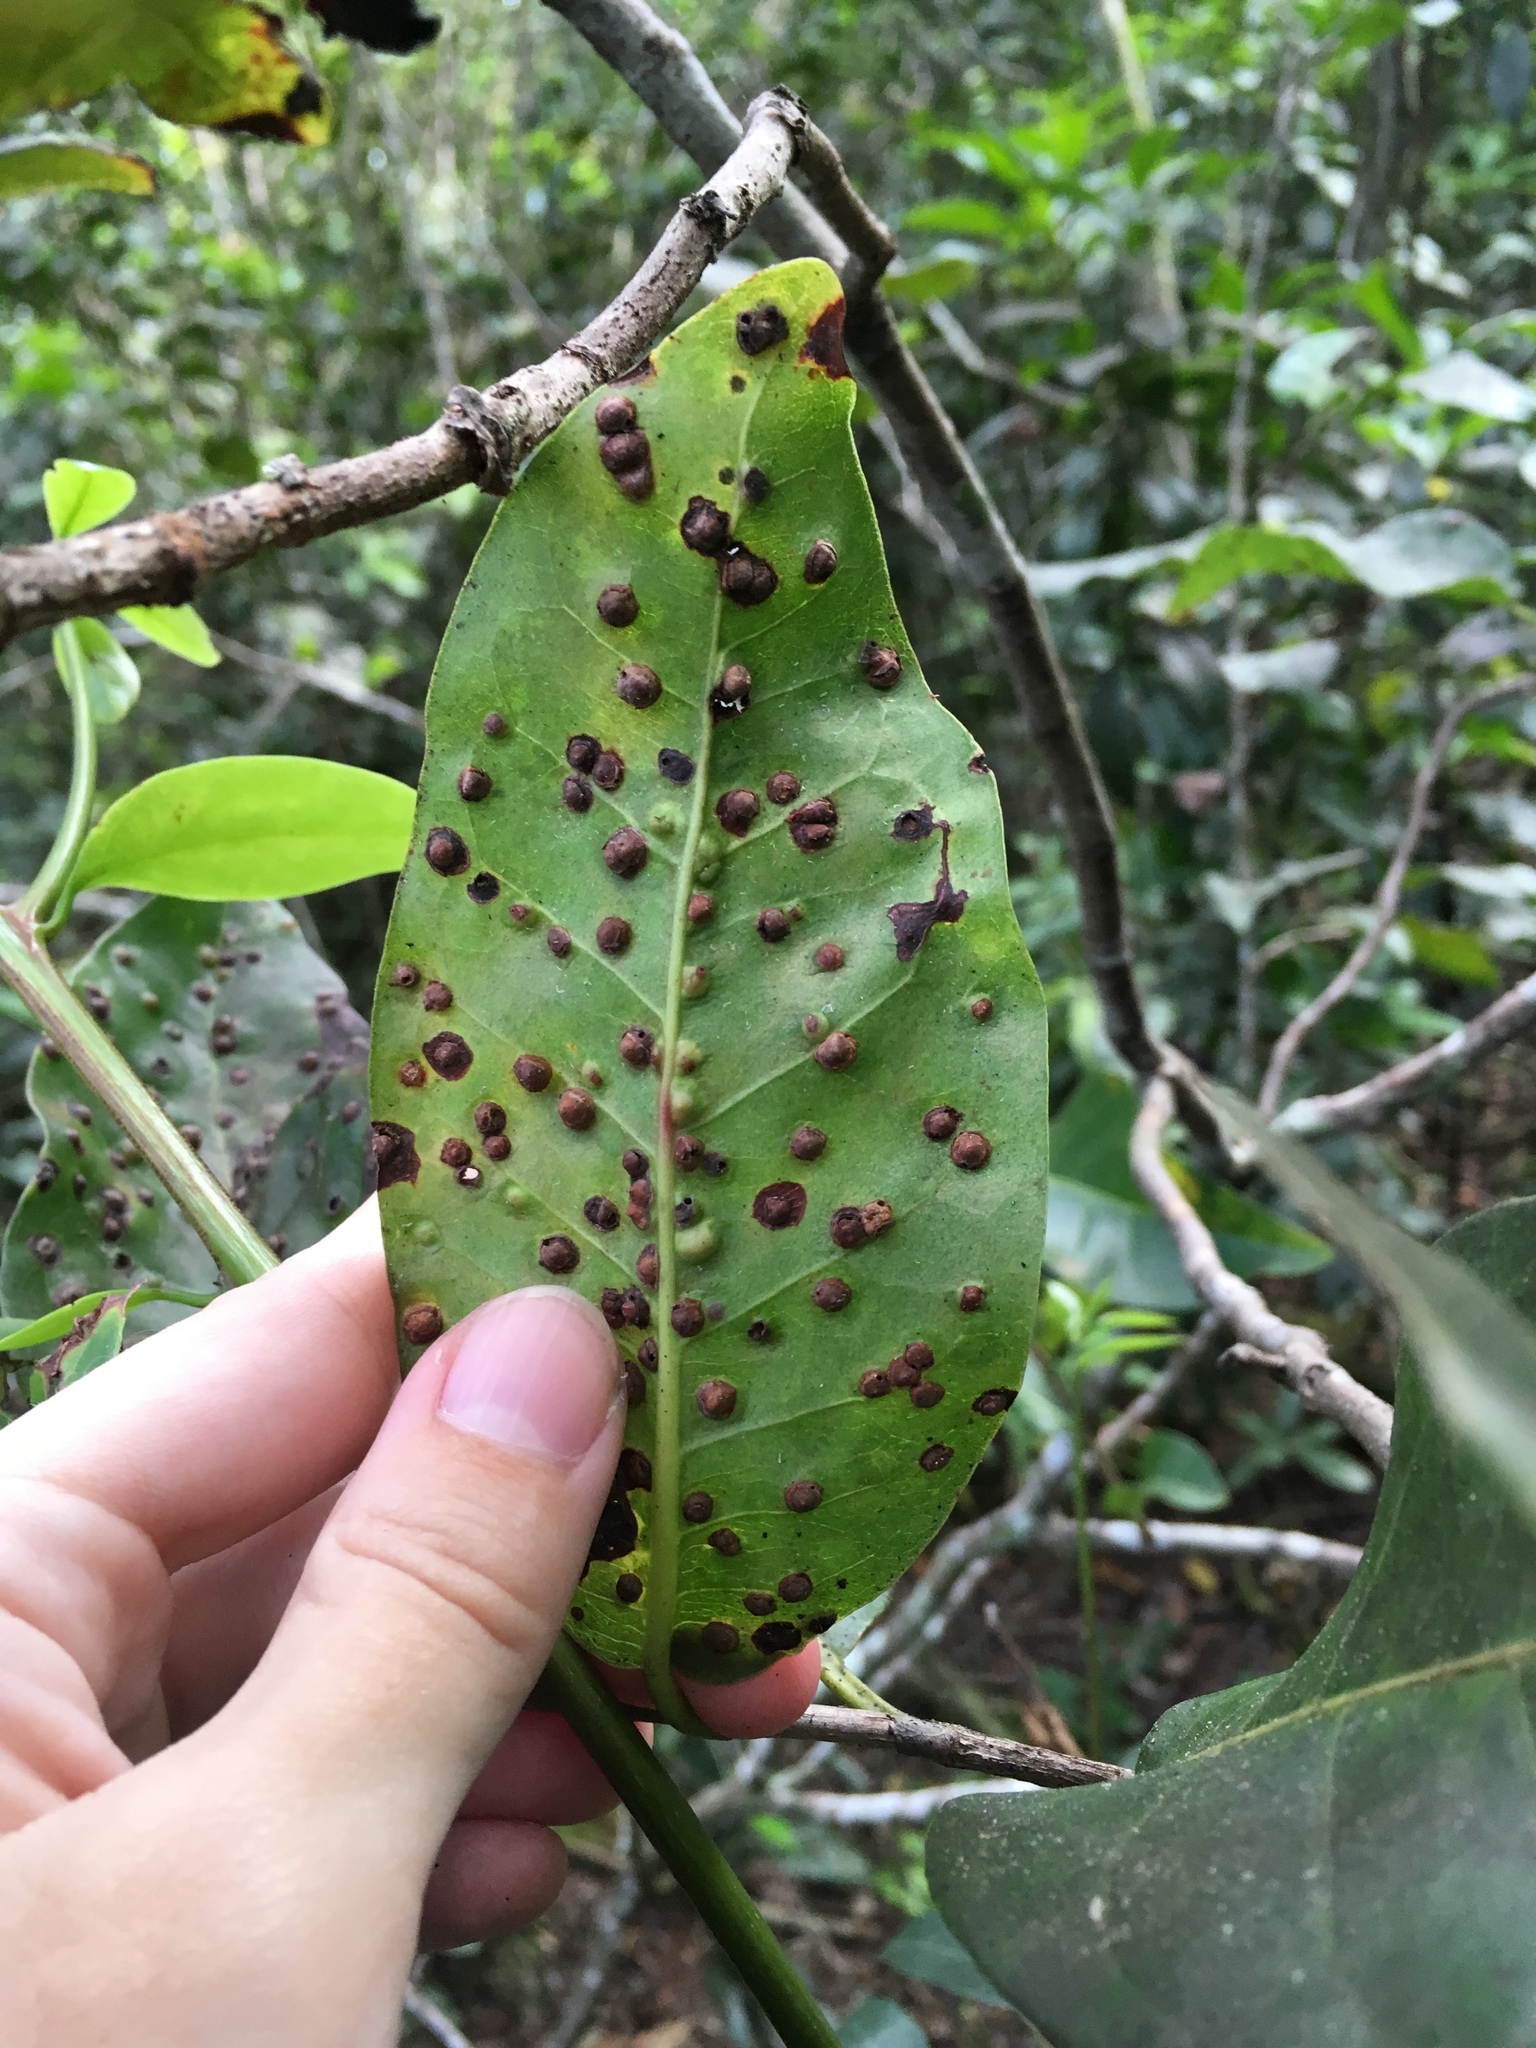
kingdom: Animalia
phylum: Arthropoda
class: Insecta
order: Diptera
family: Cecidomyiidae
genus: Ctenodactylomyia
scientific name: Ctenodactylomyia watsoni
